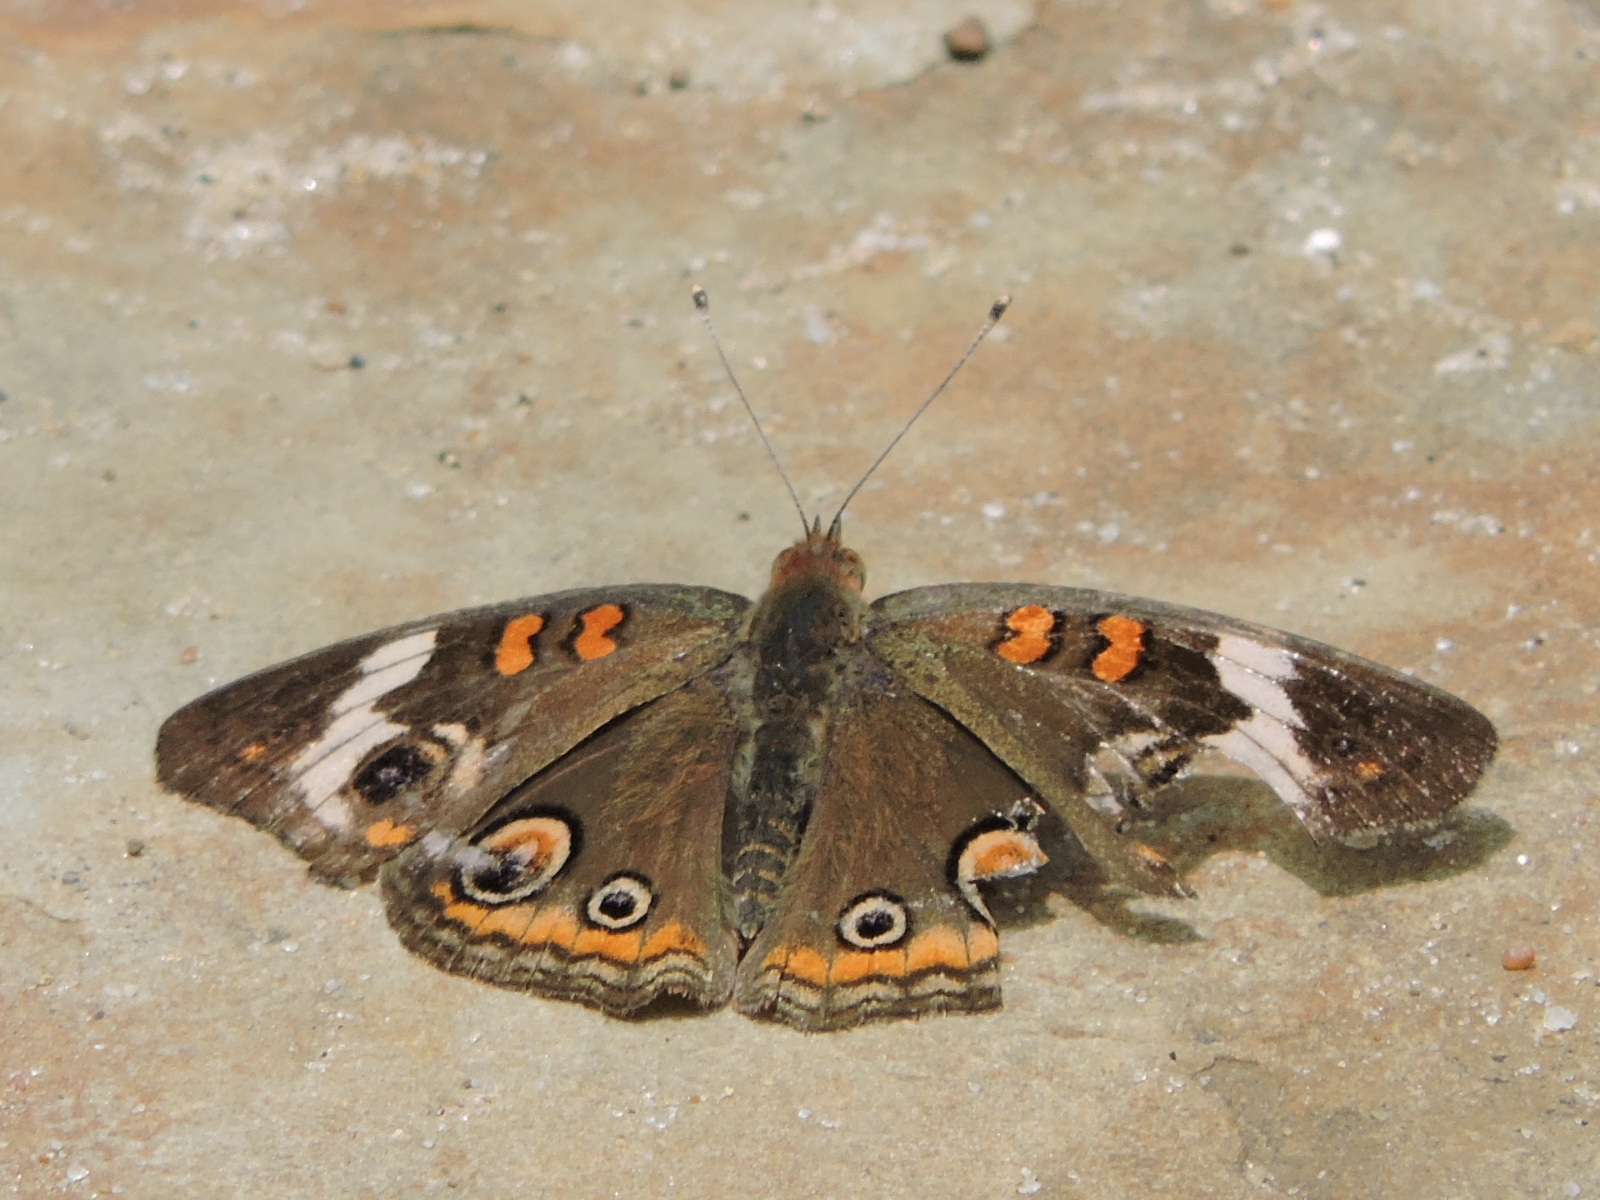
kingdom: Animalia
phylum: Arthropoda
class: Insecta
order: Lepidoptera
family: Nymphalidae
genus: Junonia
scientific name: Junonia coenia
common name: Common buckeye
